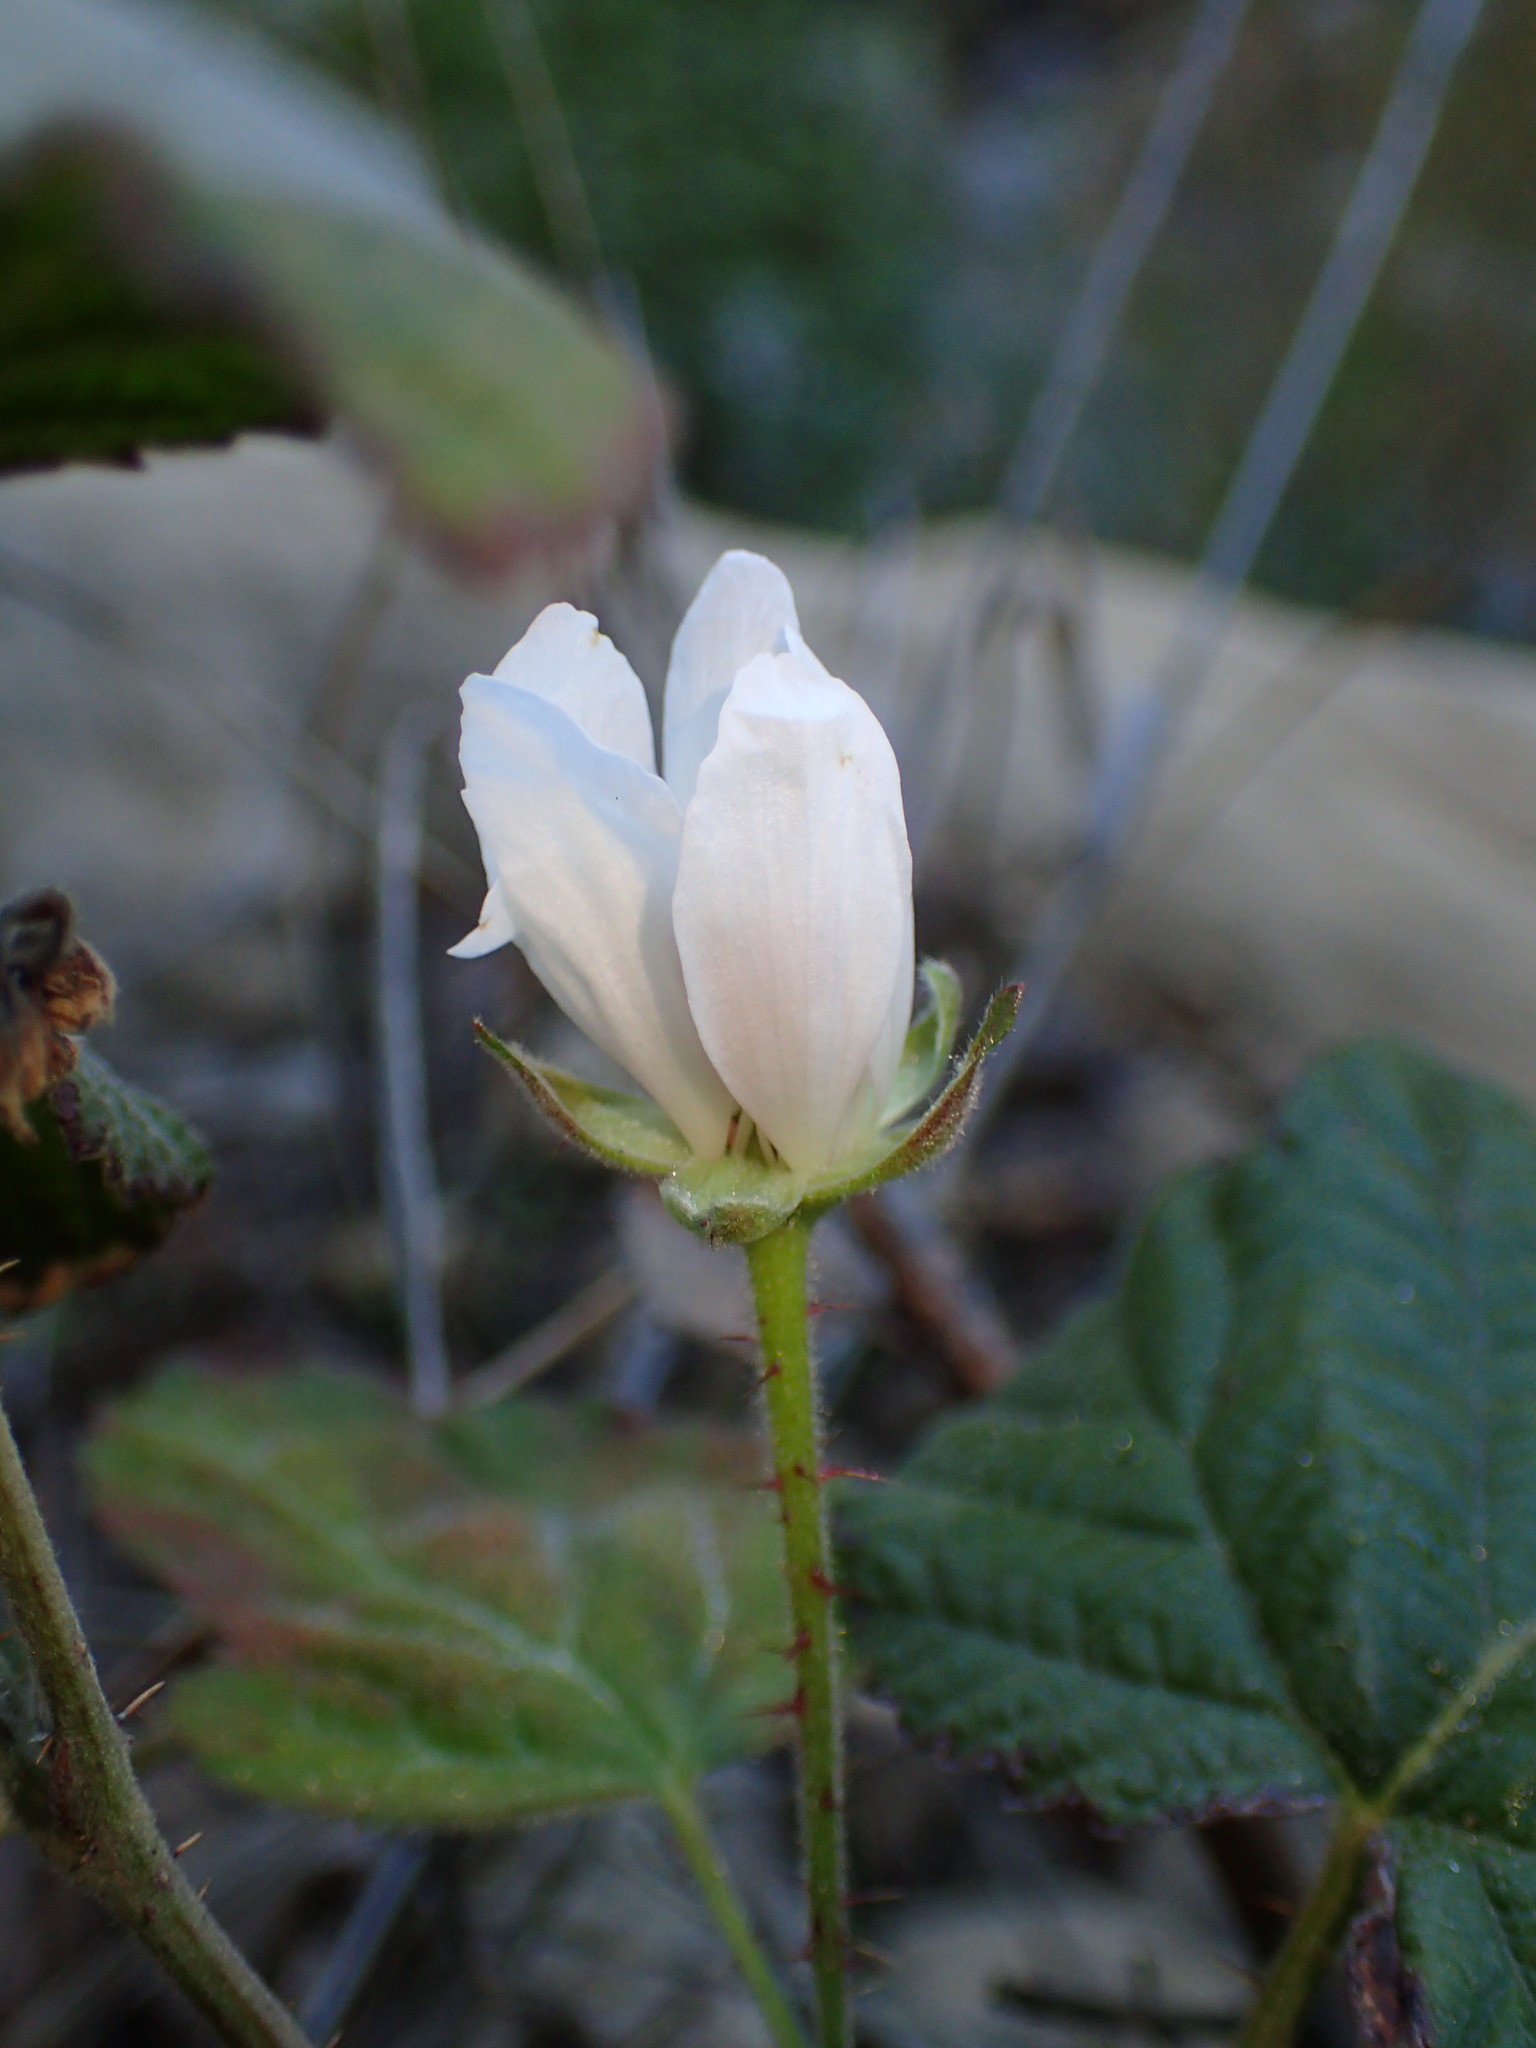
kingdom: Plantae
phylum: Tracheophyta
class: Magnoliopsida
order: Rosales
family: Rosaceae
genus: Rubus
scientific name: Rubus ursinus
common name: Pacific blackberry
